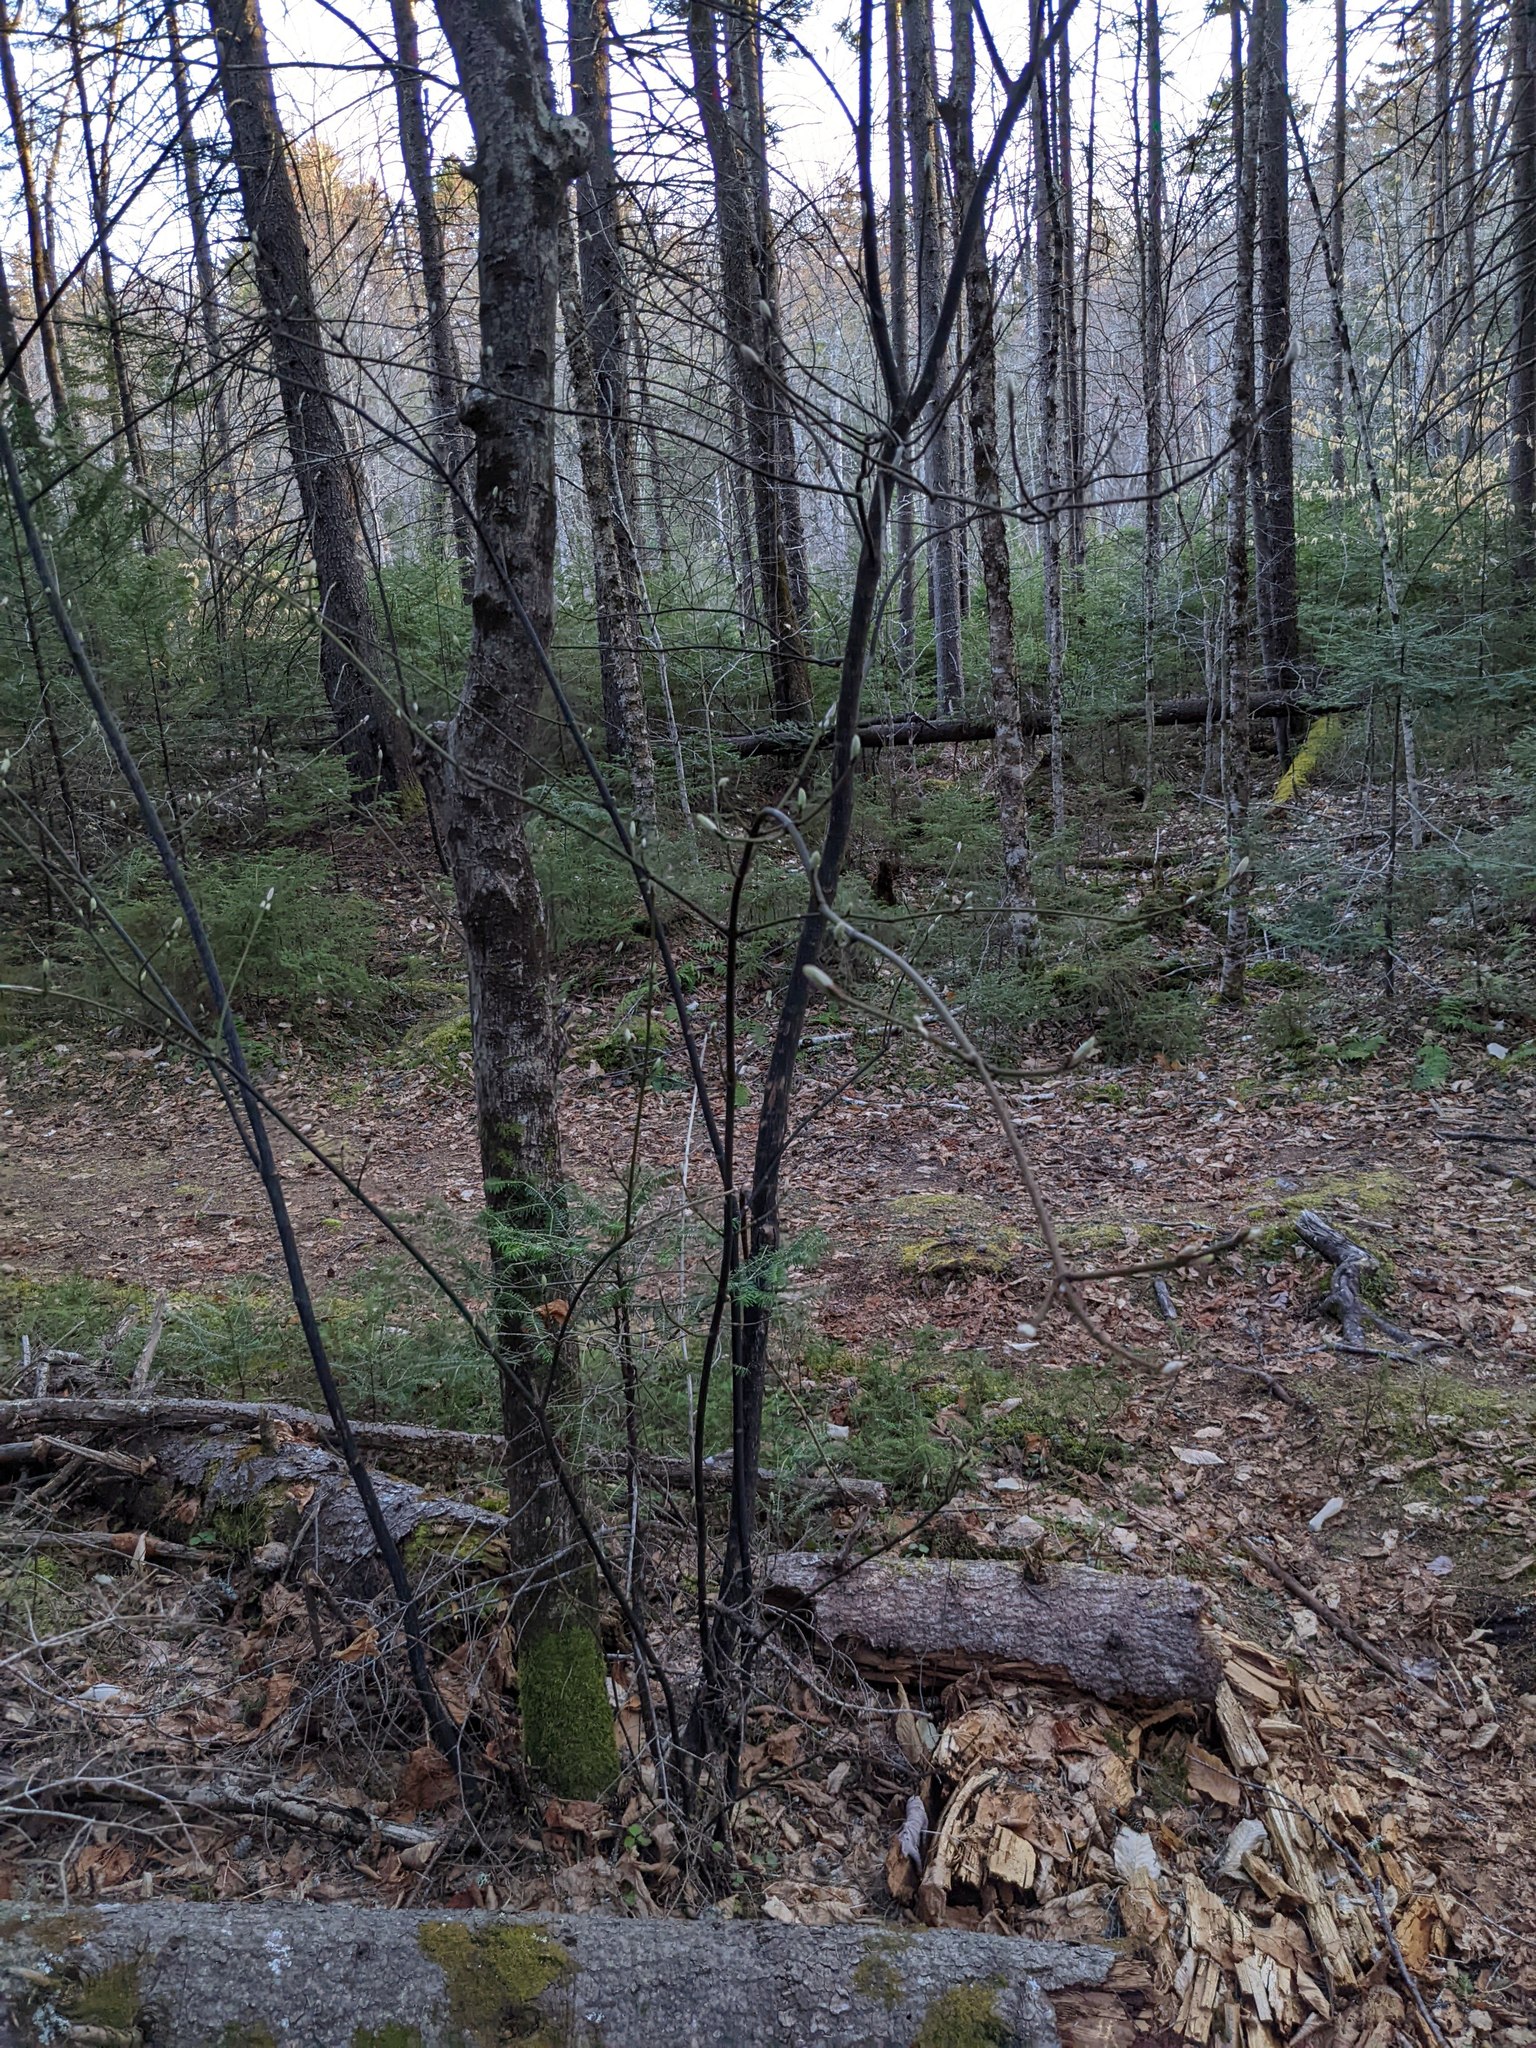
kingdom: Plantae
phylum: Tracheophyta
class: Magnoliopsida
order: Sapindales
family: Sapindaceae
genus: Acer
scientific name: Acer pensylvanicum
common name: Moosewood
